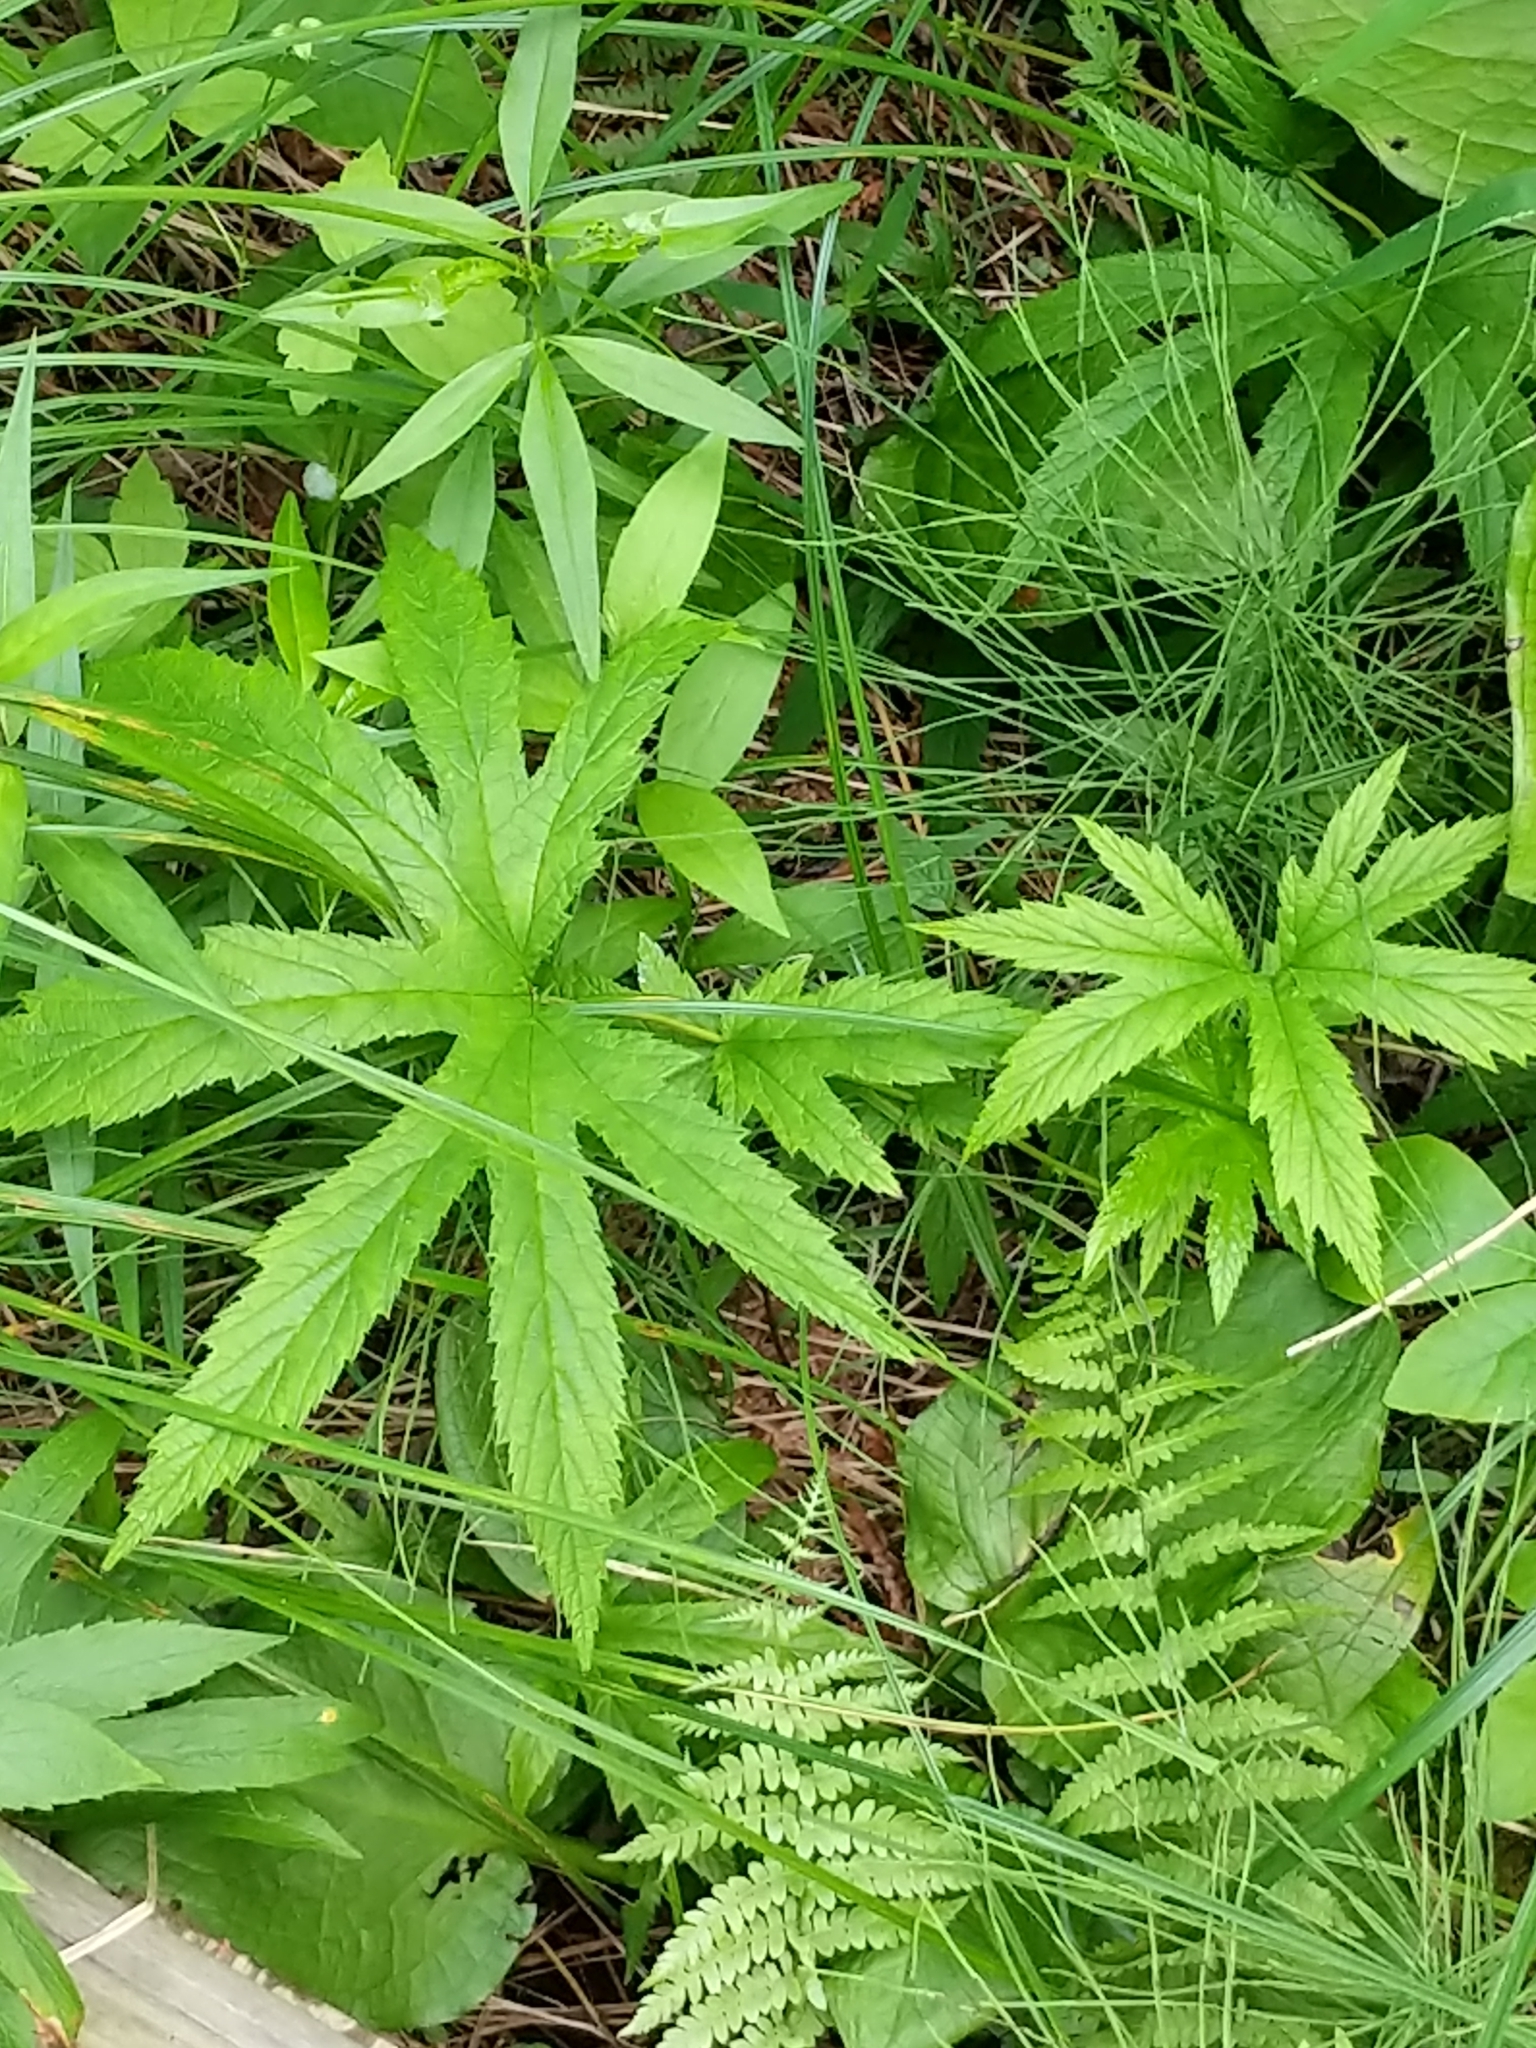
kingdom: Plantae
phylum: Tracheophyta
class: Magnoliopsida
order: Rosales
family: Rosaceae
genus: Filipendula
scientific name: Filipendula rubra
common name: Queen-of-the-prairie
